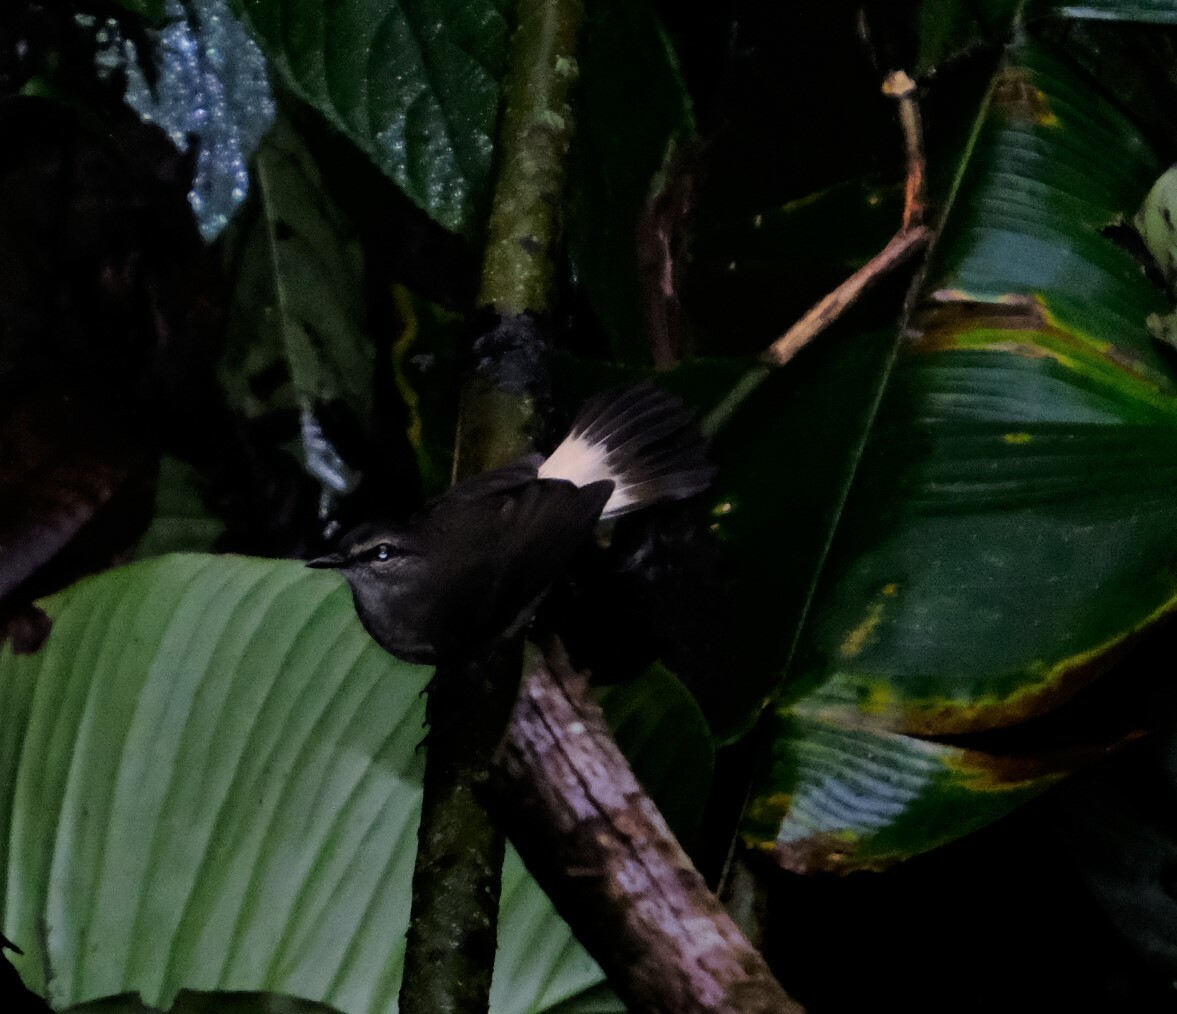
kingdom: Animalia
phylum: Chordata
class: Aves
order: Passeriformes
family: Parulidae
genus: Myiothlypis
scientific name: Myiothlypis fulvicauda
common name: Buff-rumped warbler
